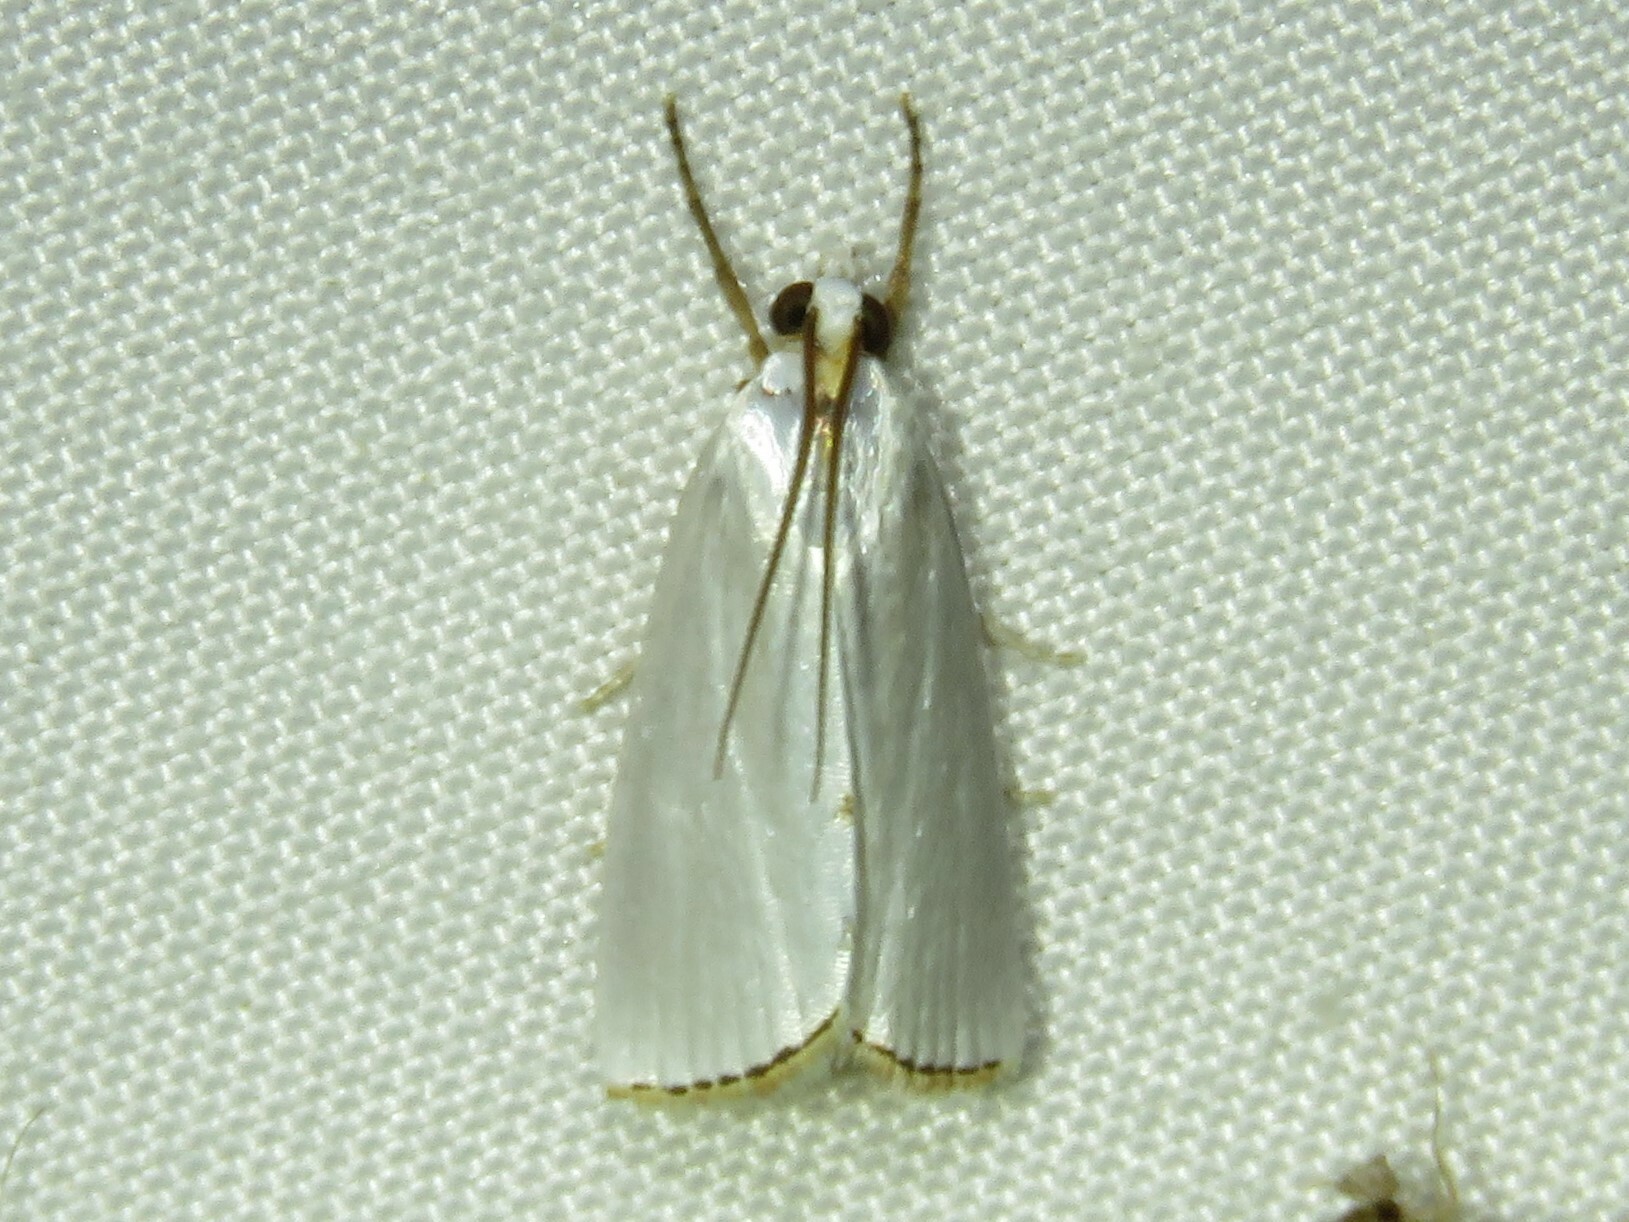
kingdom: Animalia
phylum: Arthropoda
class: Insecta
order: Lepidoptera
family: Crambidae
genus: Argyria
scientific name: Argyria nivalis
